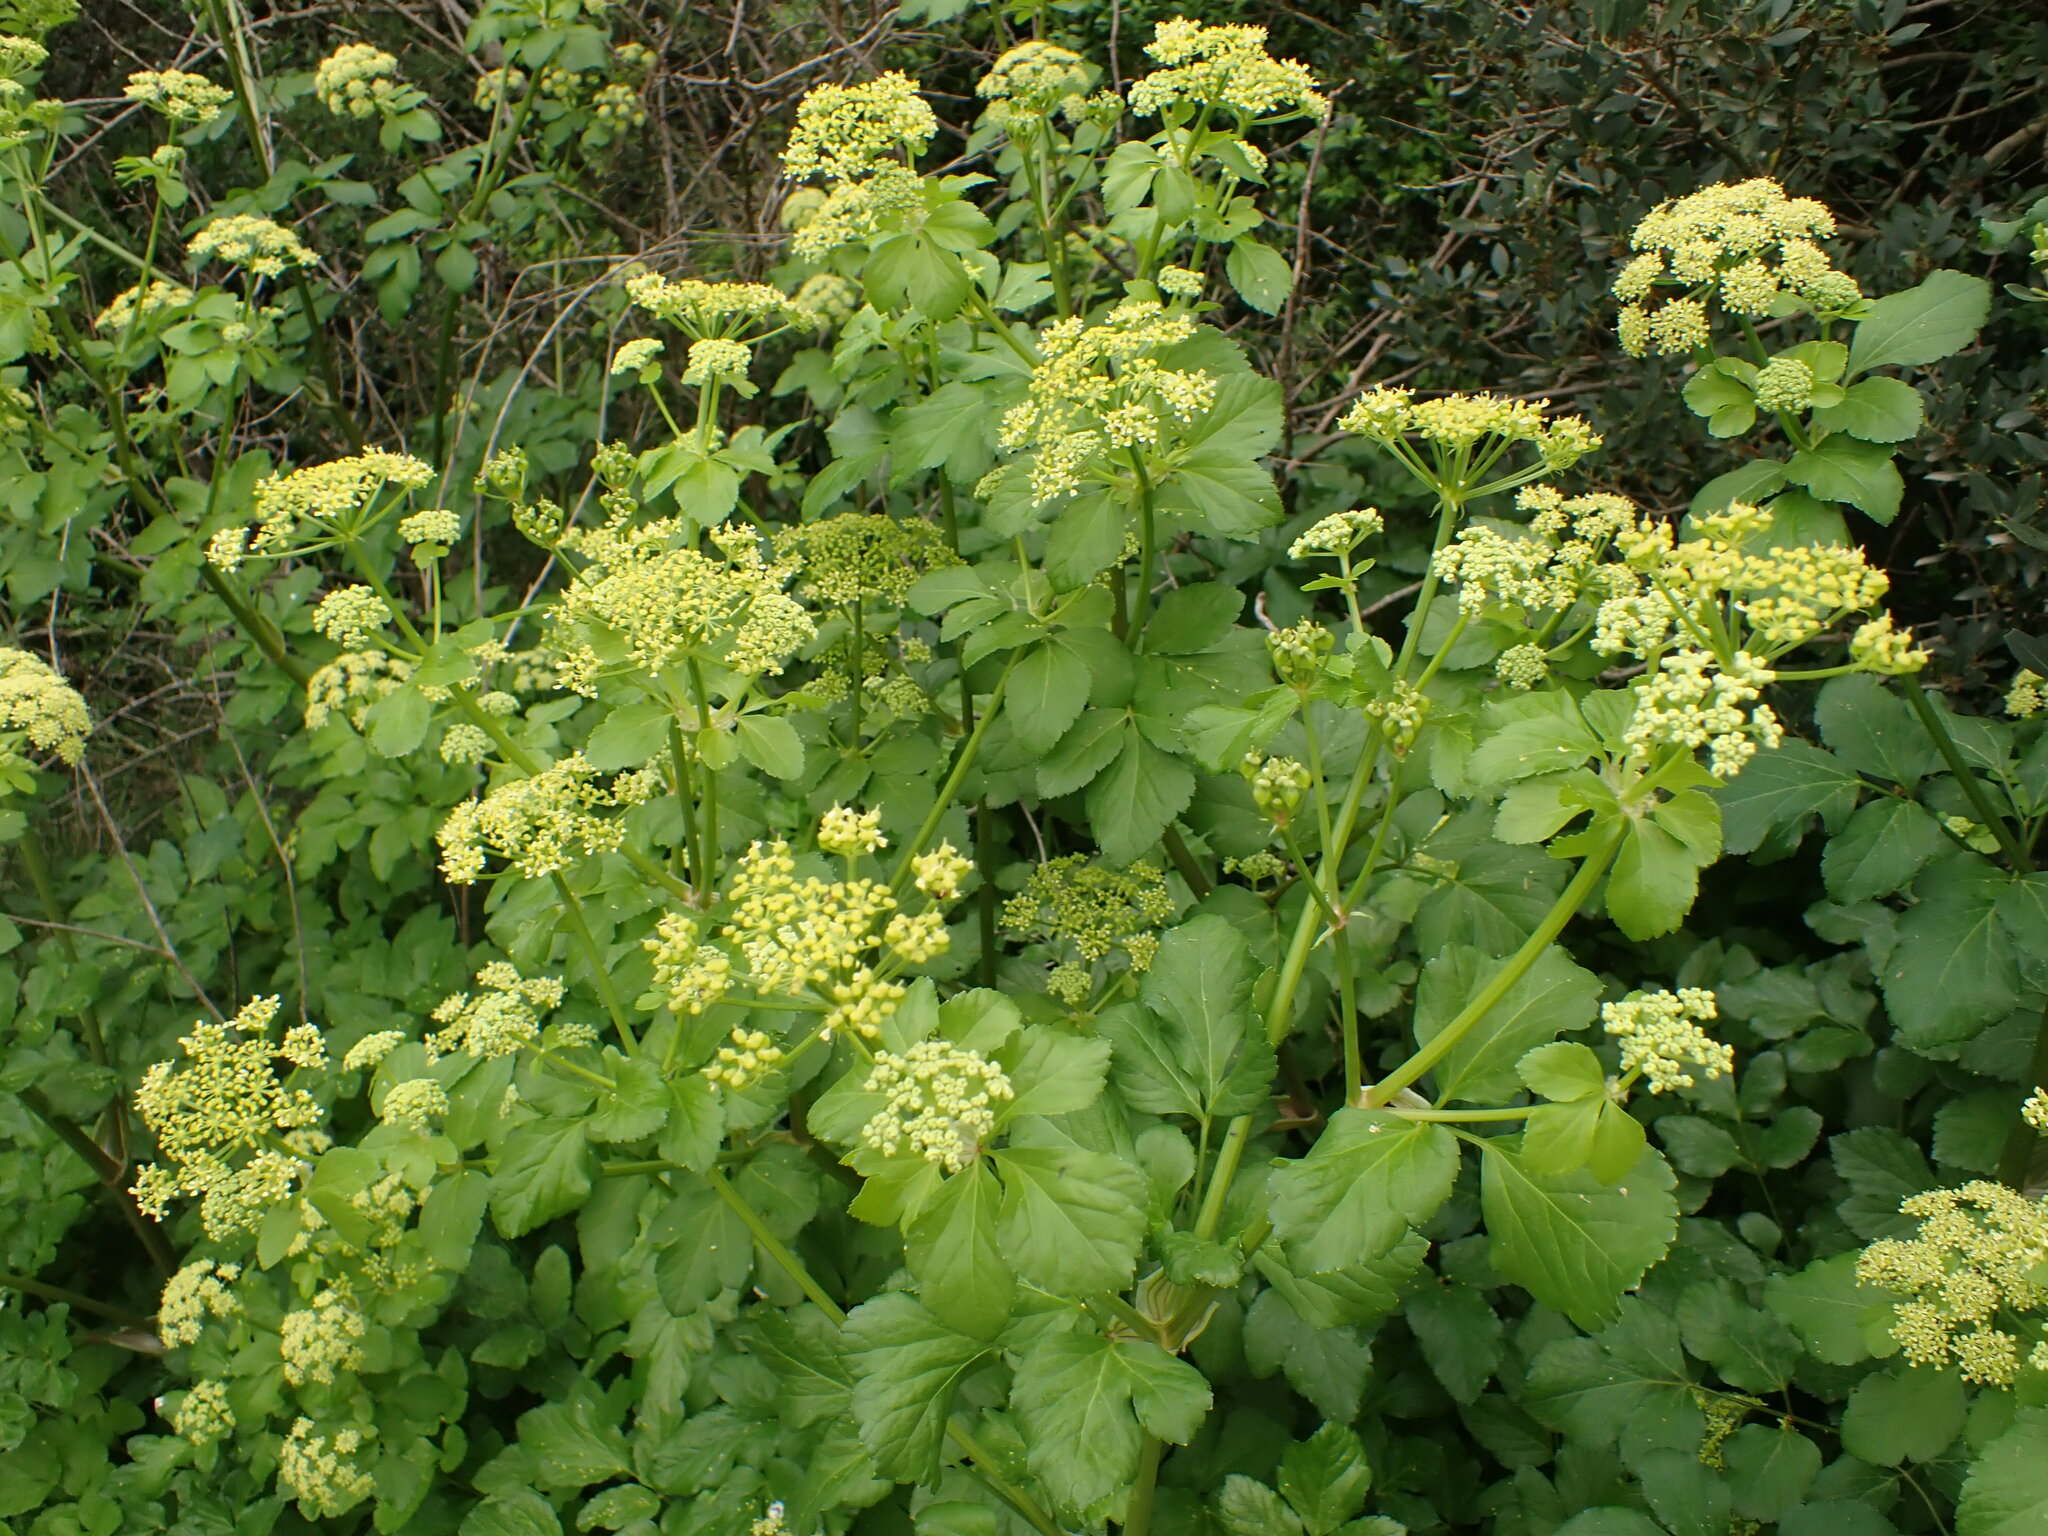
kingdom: Plantae
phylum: Tracheophyta
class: Magnoliopsida
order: Apiales
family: Apiaceae
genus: Smyrnium
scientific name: Smyrnium olusatrum
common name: Alexanders
